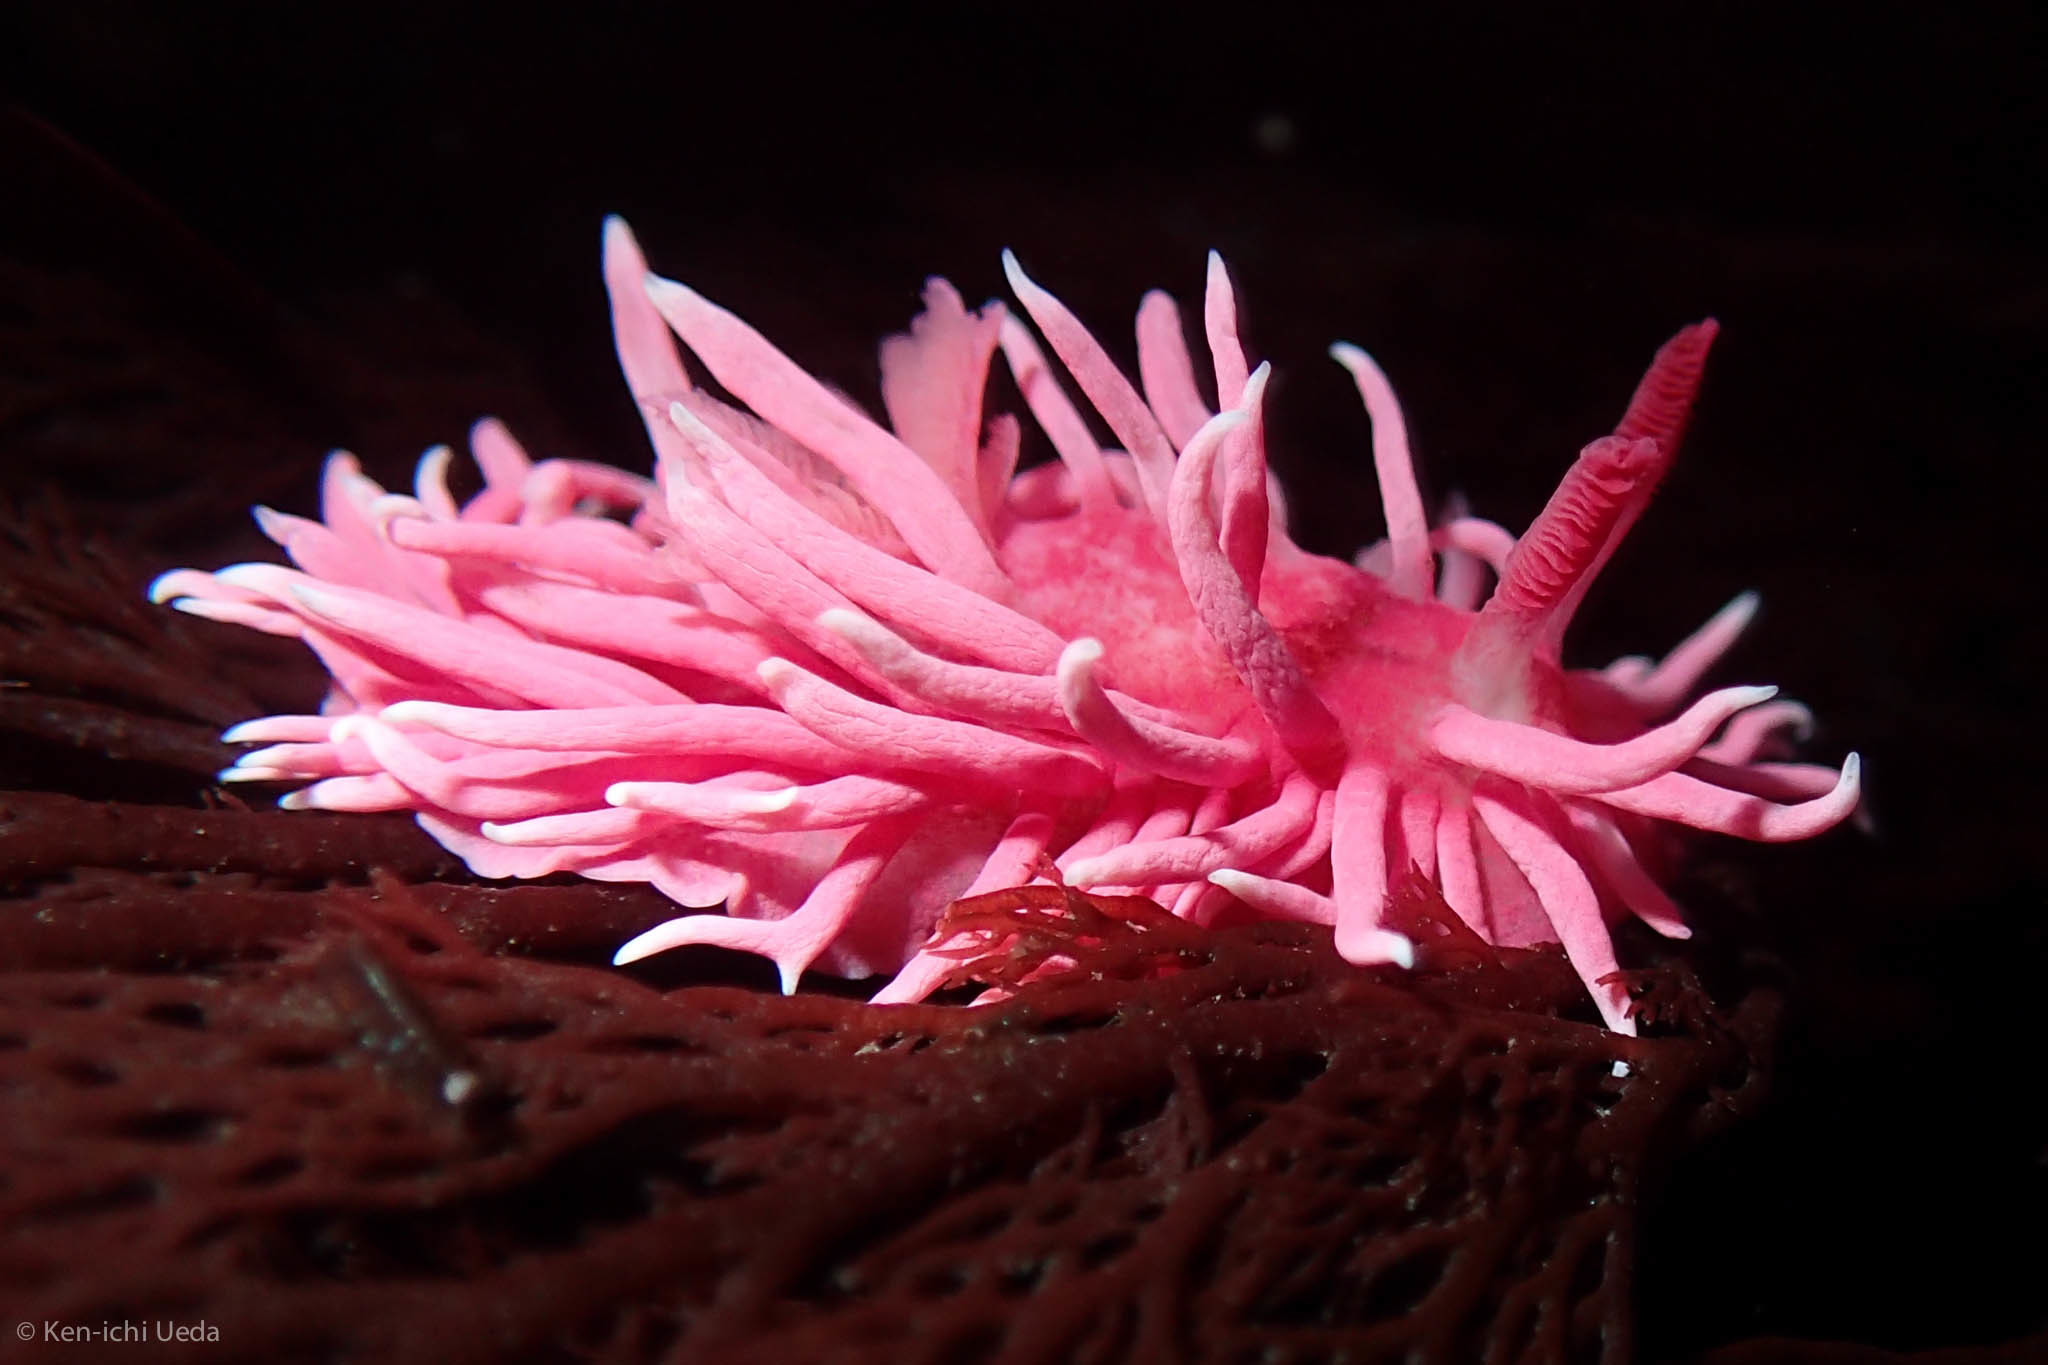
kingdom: Animalia
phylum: Mollusca
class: Gastropoda
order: Nudibranchia
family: Goniodorididae
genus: Okenia
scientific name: Okenia
